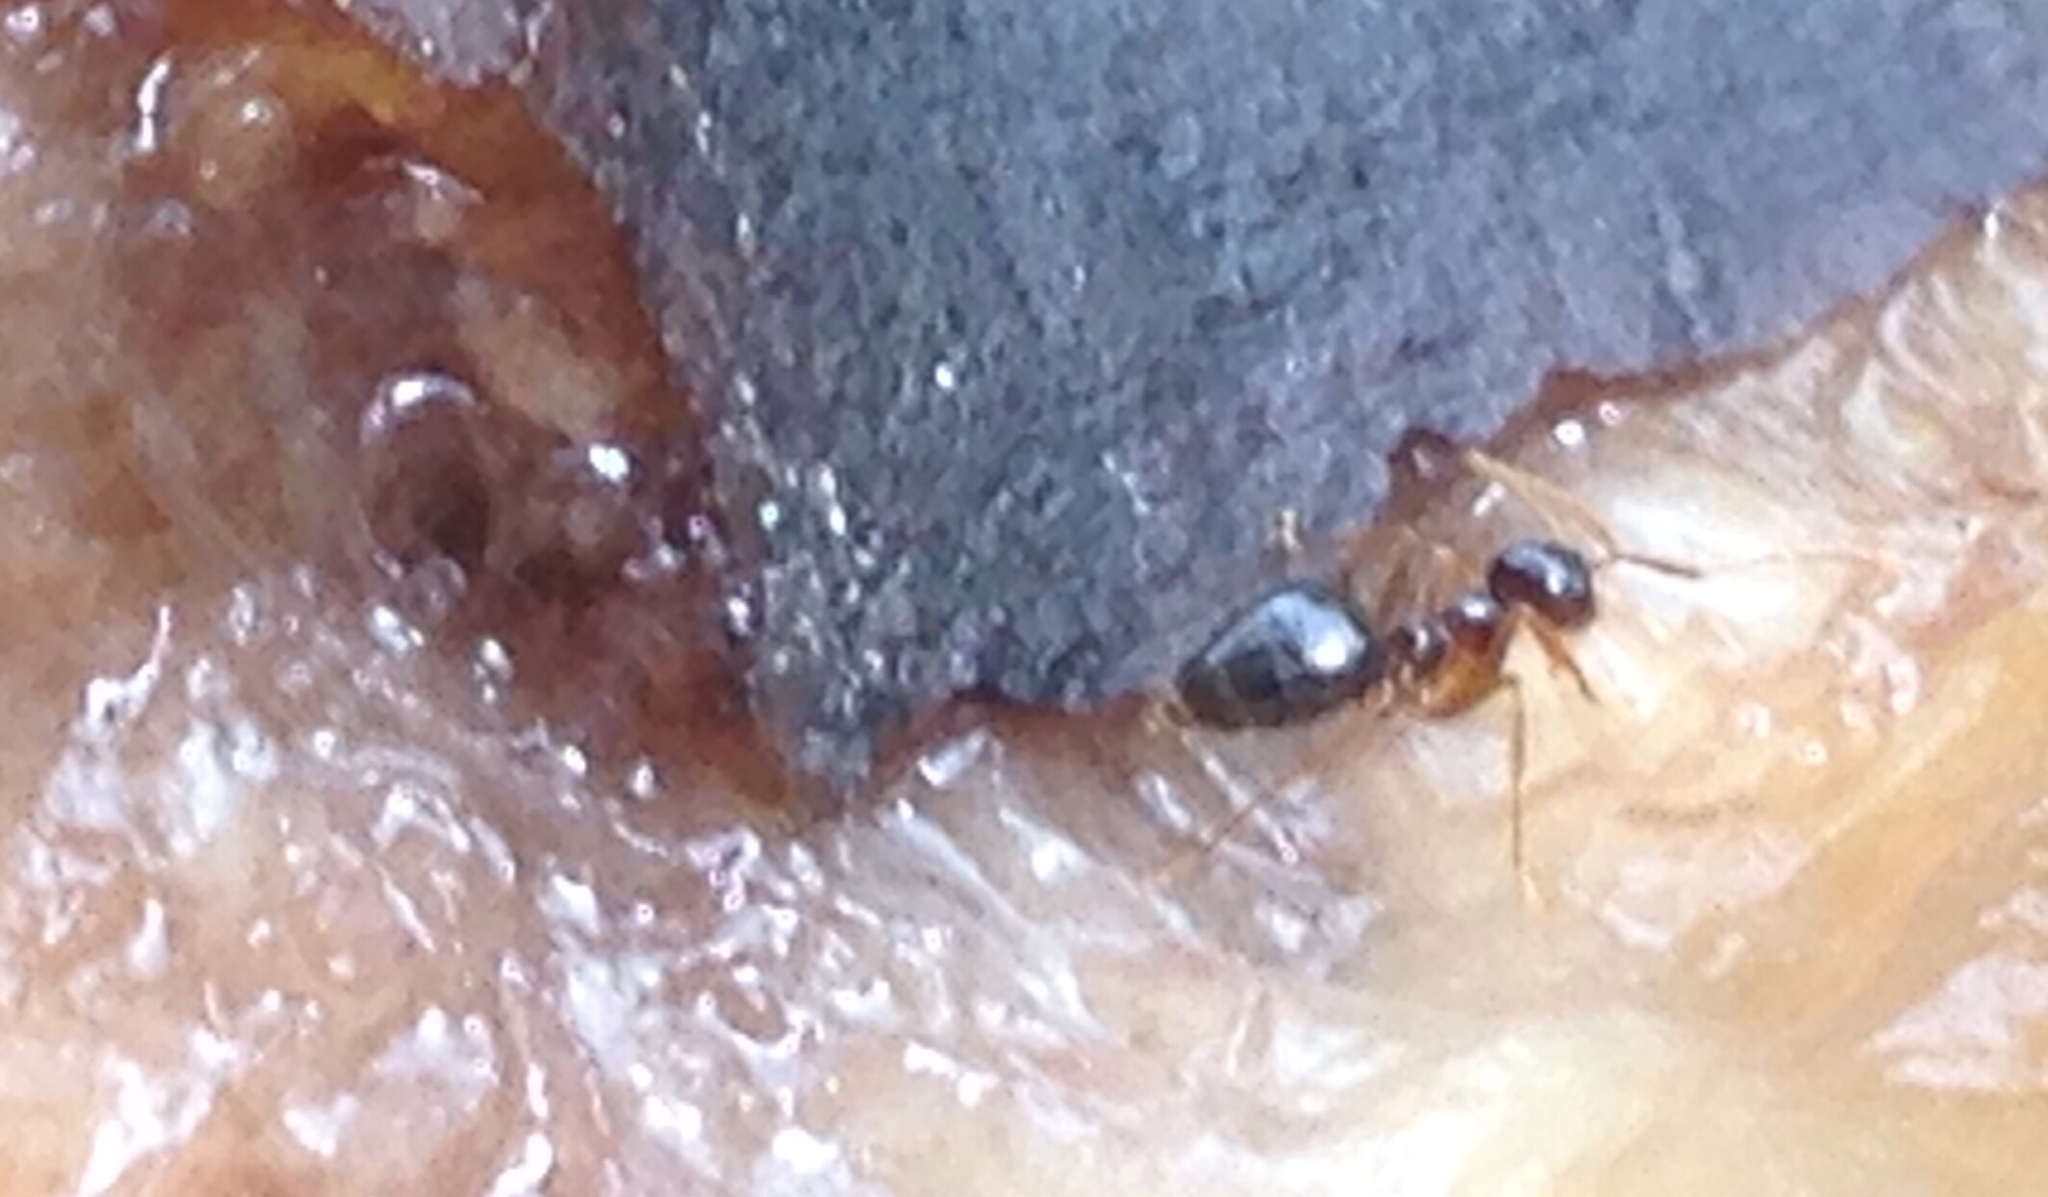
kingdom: Animalia
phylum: Arthropoda
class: Insecta
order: Hymenoptera
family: Formicidae
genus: Prenolepis
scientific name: Prenolepis imparis
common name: Small honey ant
